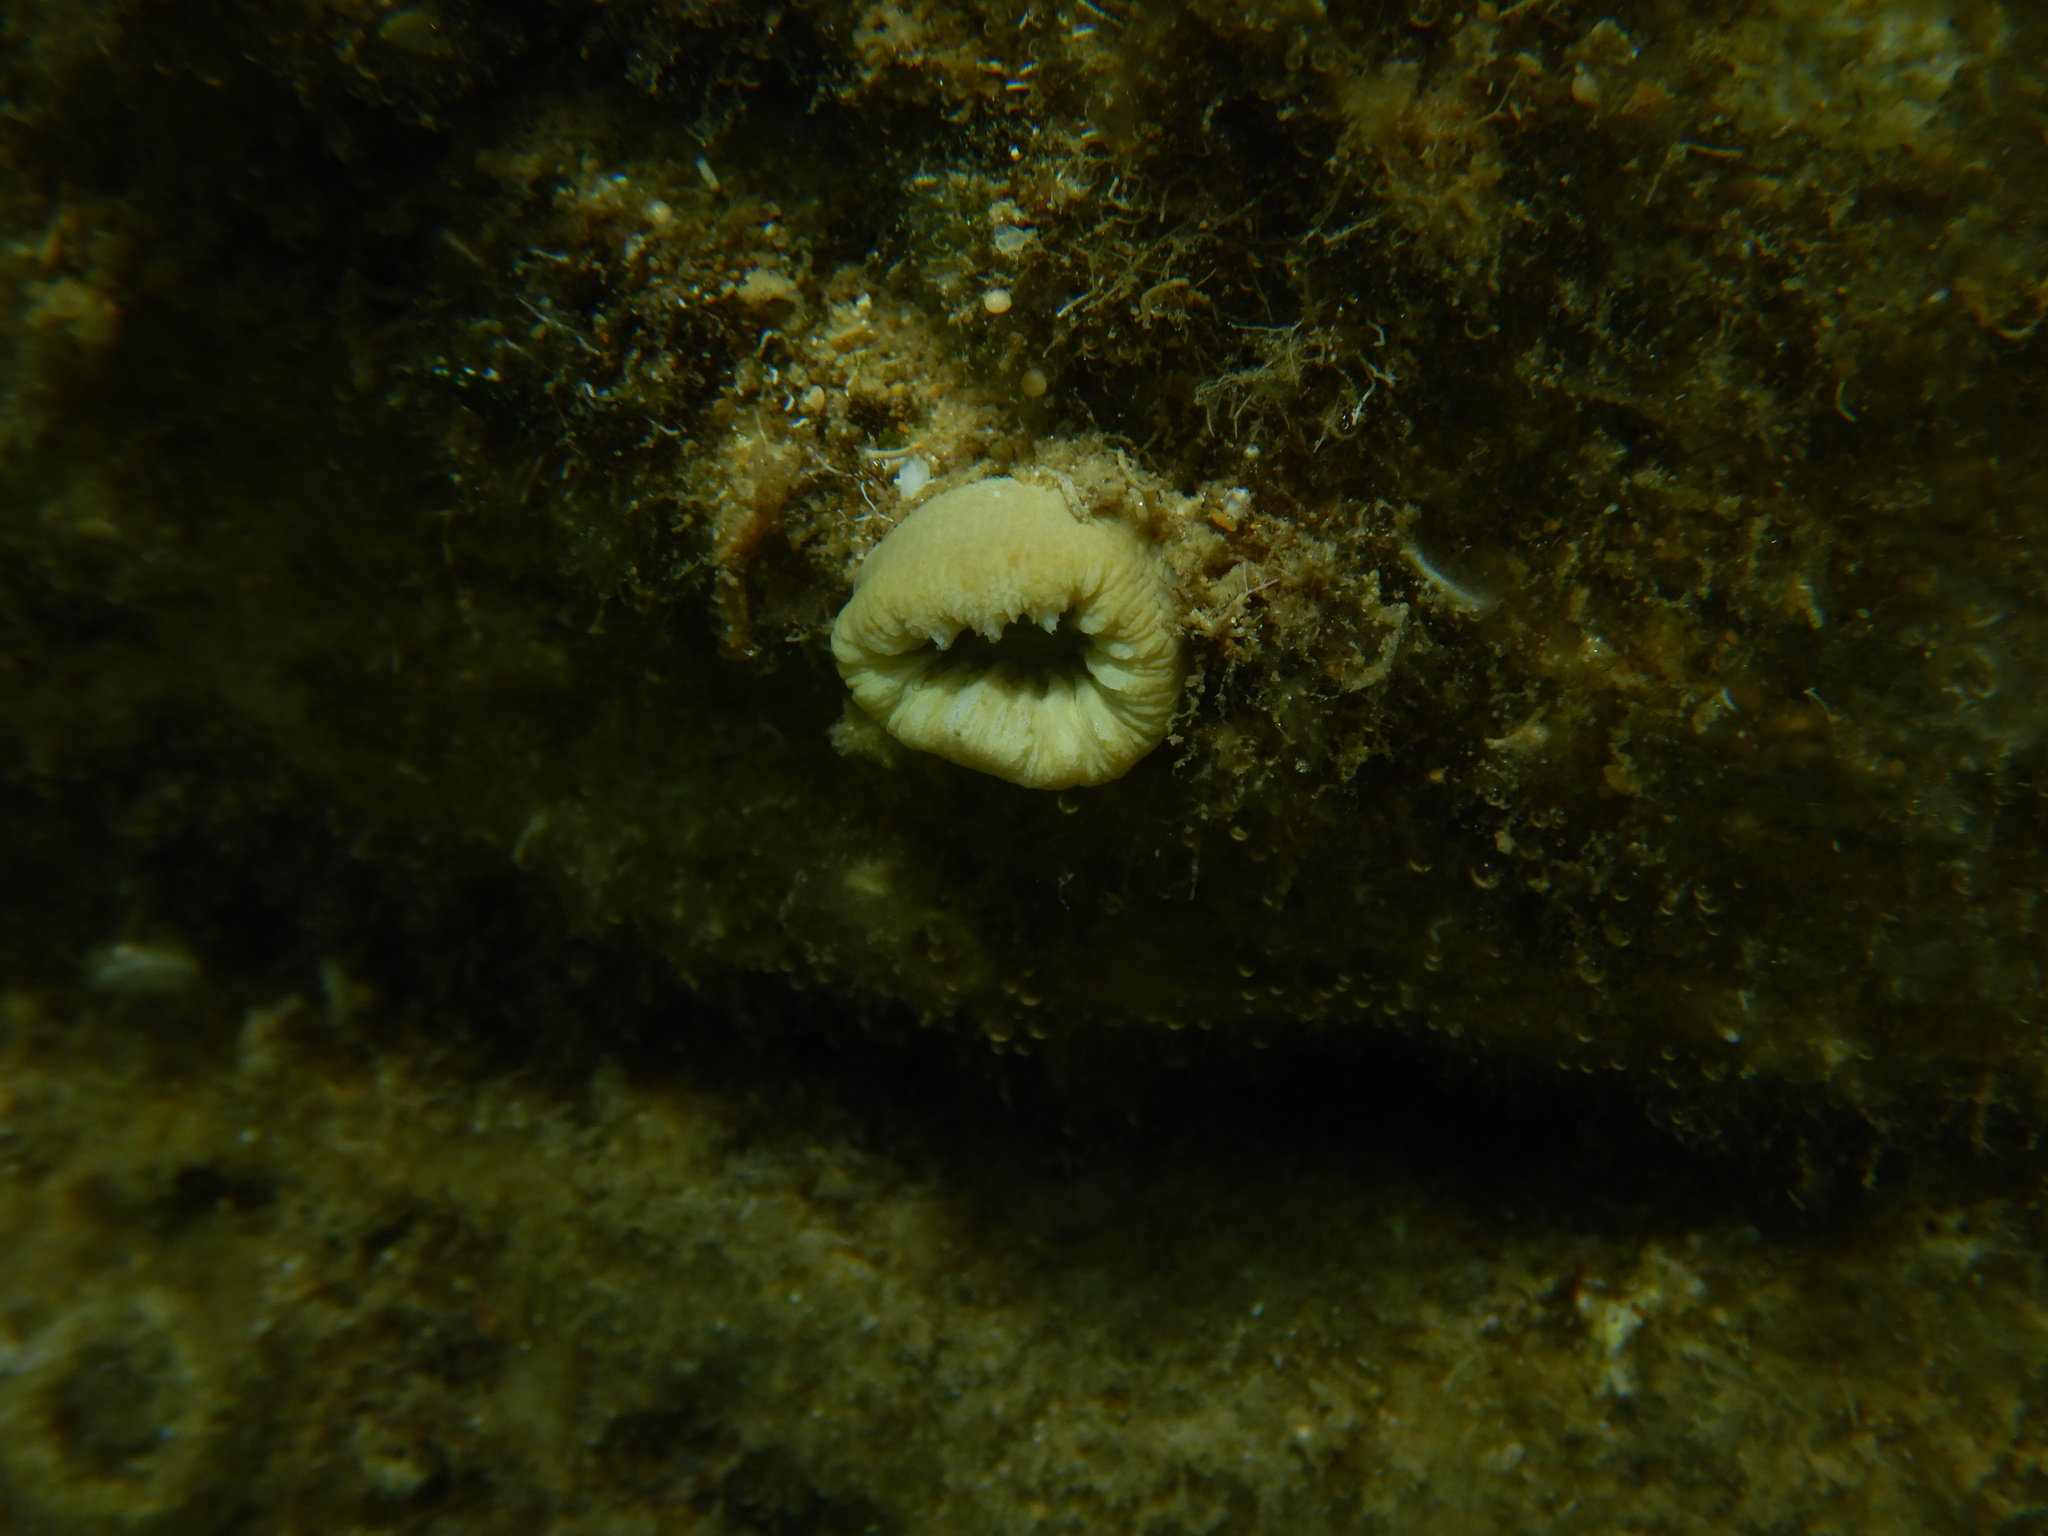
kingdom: Animalia
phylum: Cnidaria
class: Anthozoa
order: Scleractinia
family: Dendrophylliidae
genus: Balanophyllia
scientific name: Balanophyllia europaea
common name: Scarlet coral
